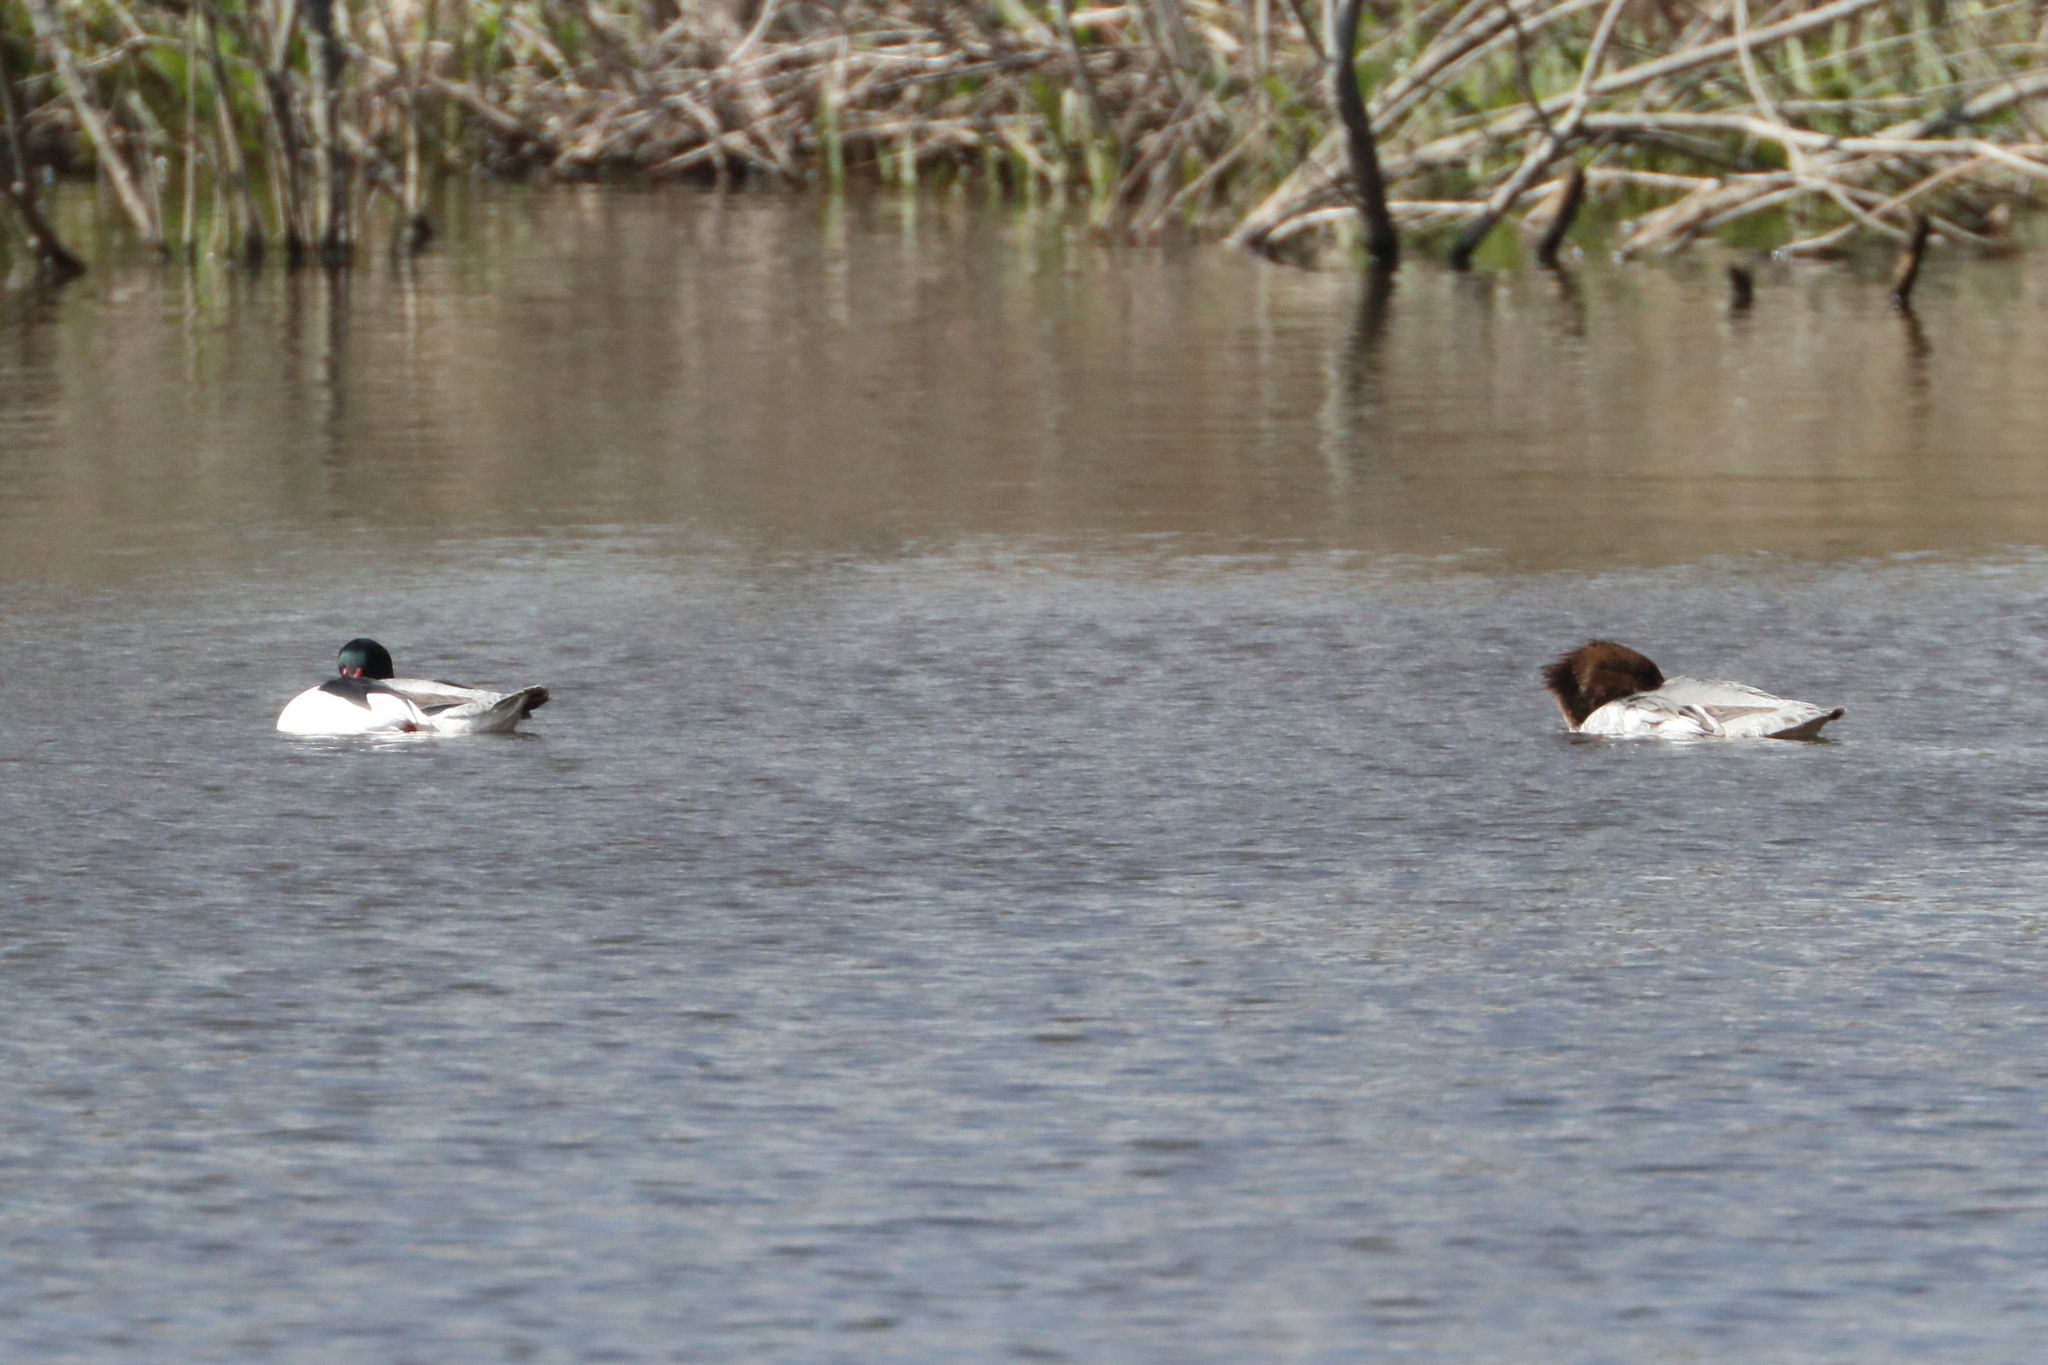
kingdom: Animalia
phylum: Chordata
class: Aves
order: Anseriformes
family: Anatidae
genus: Mergus
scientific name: Mergus merganser
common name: Common merganser
